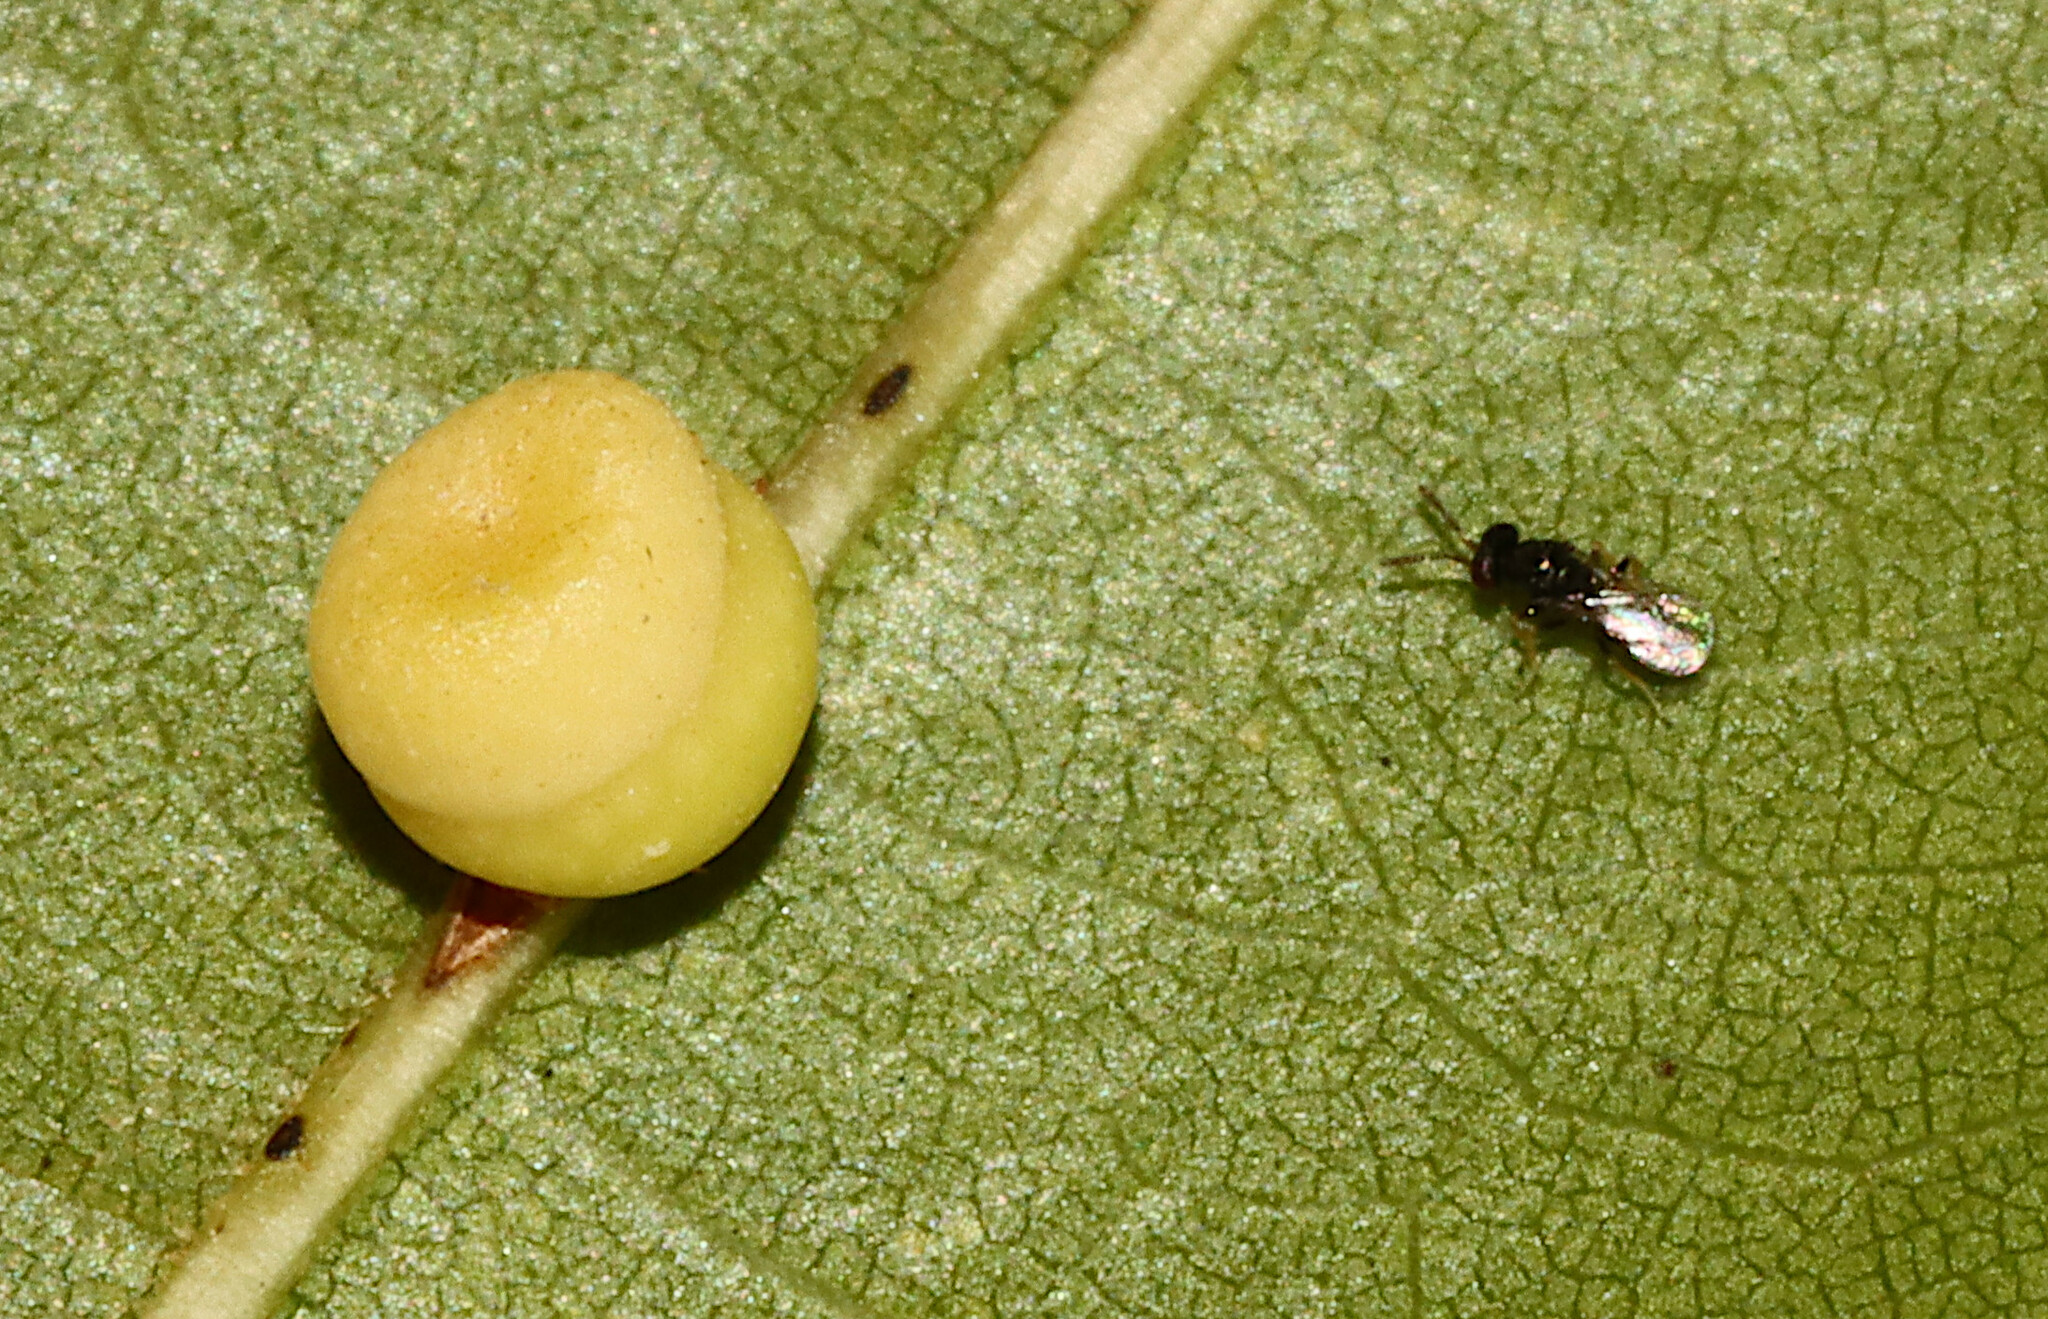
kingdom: Animalia
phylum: Arthropoda
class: Insecta
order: Hymenoptera
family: Cynipidae
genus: Kokkocynips
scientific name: Kokkocynips rileyi
